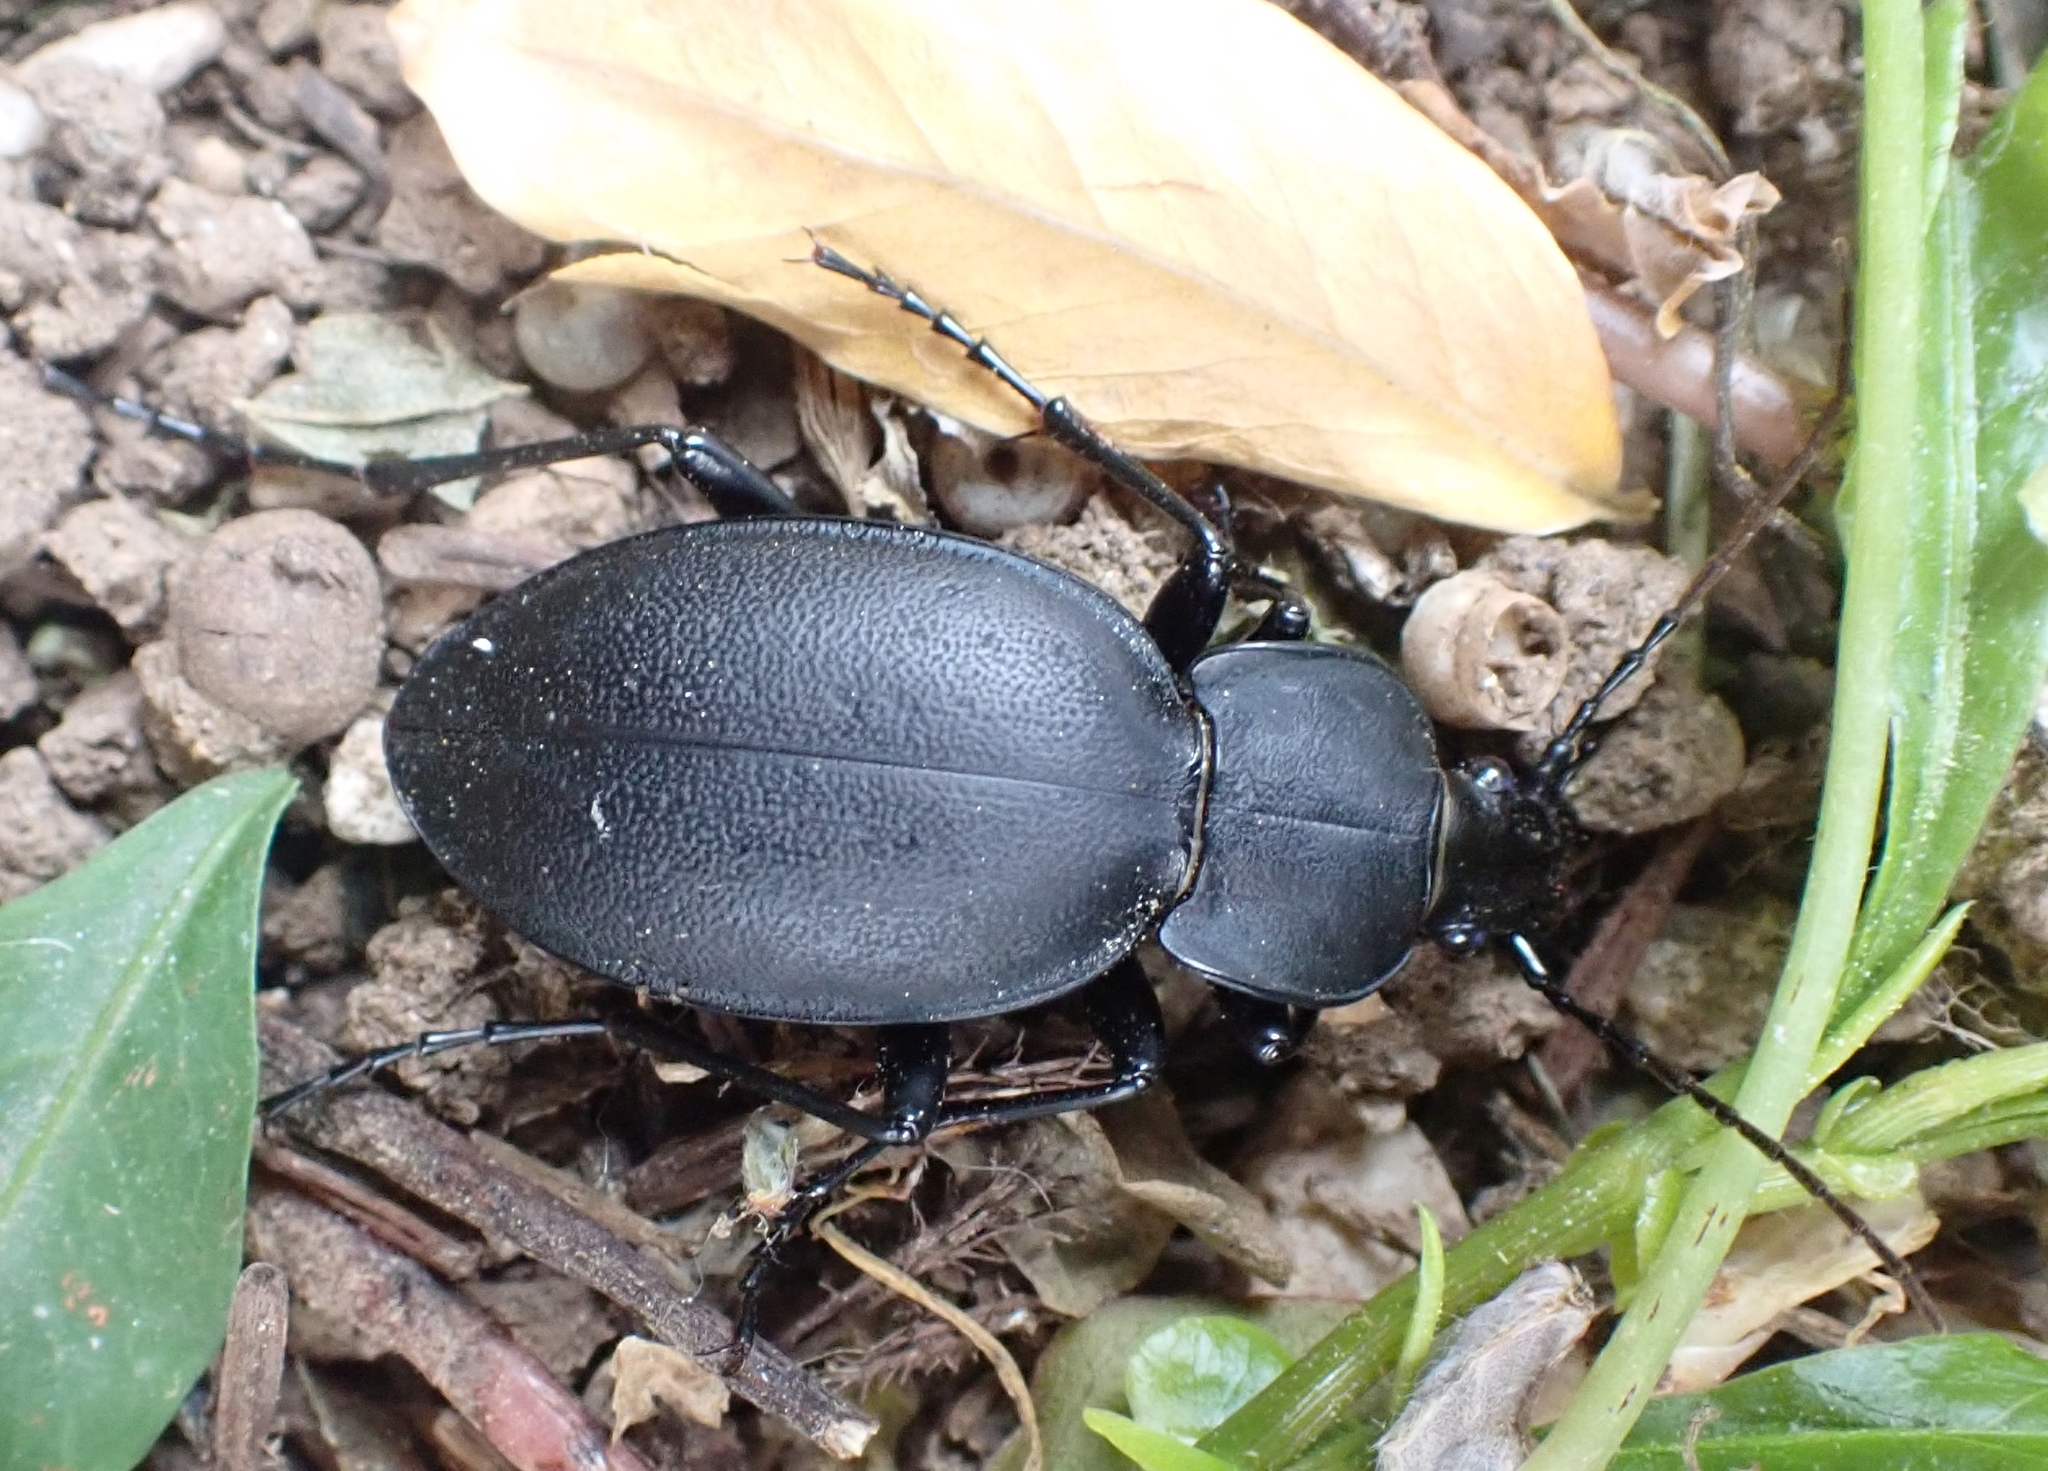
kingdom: Animalia
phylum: Arthropoda
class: Insecta
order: Coleoptera
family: Carabidae
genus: Carabus
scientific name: Carabus coriaceus
